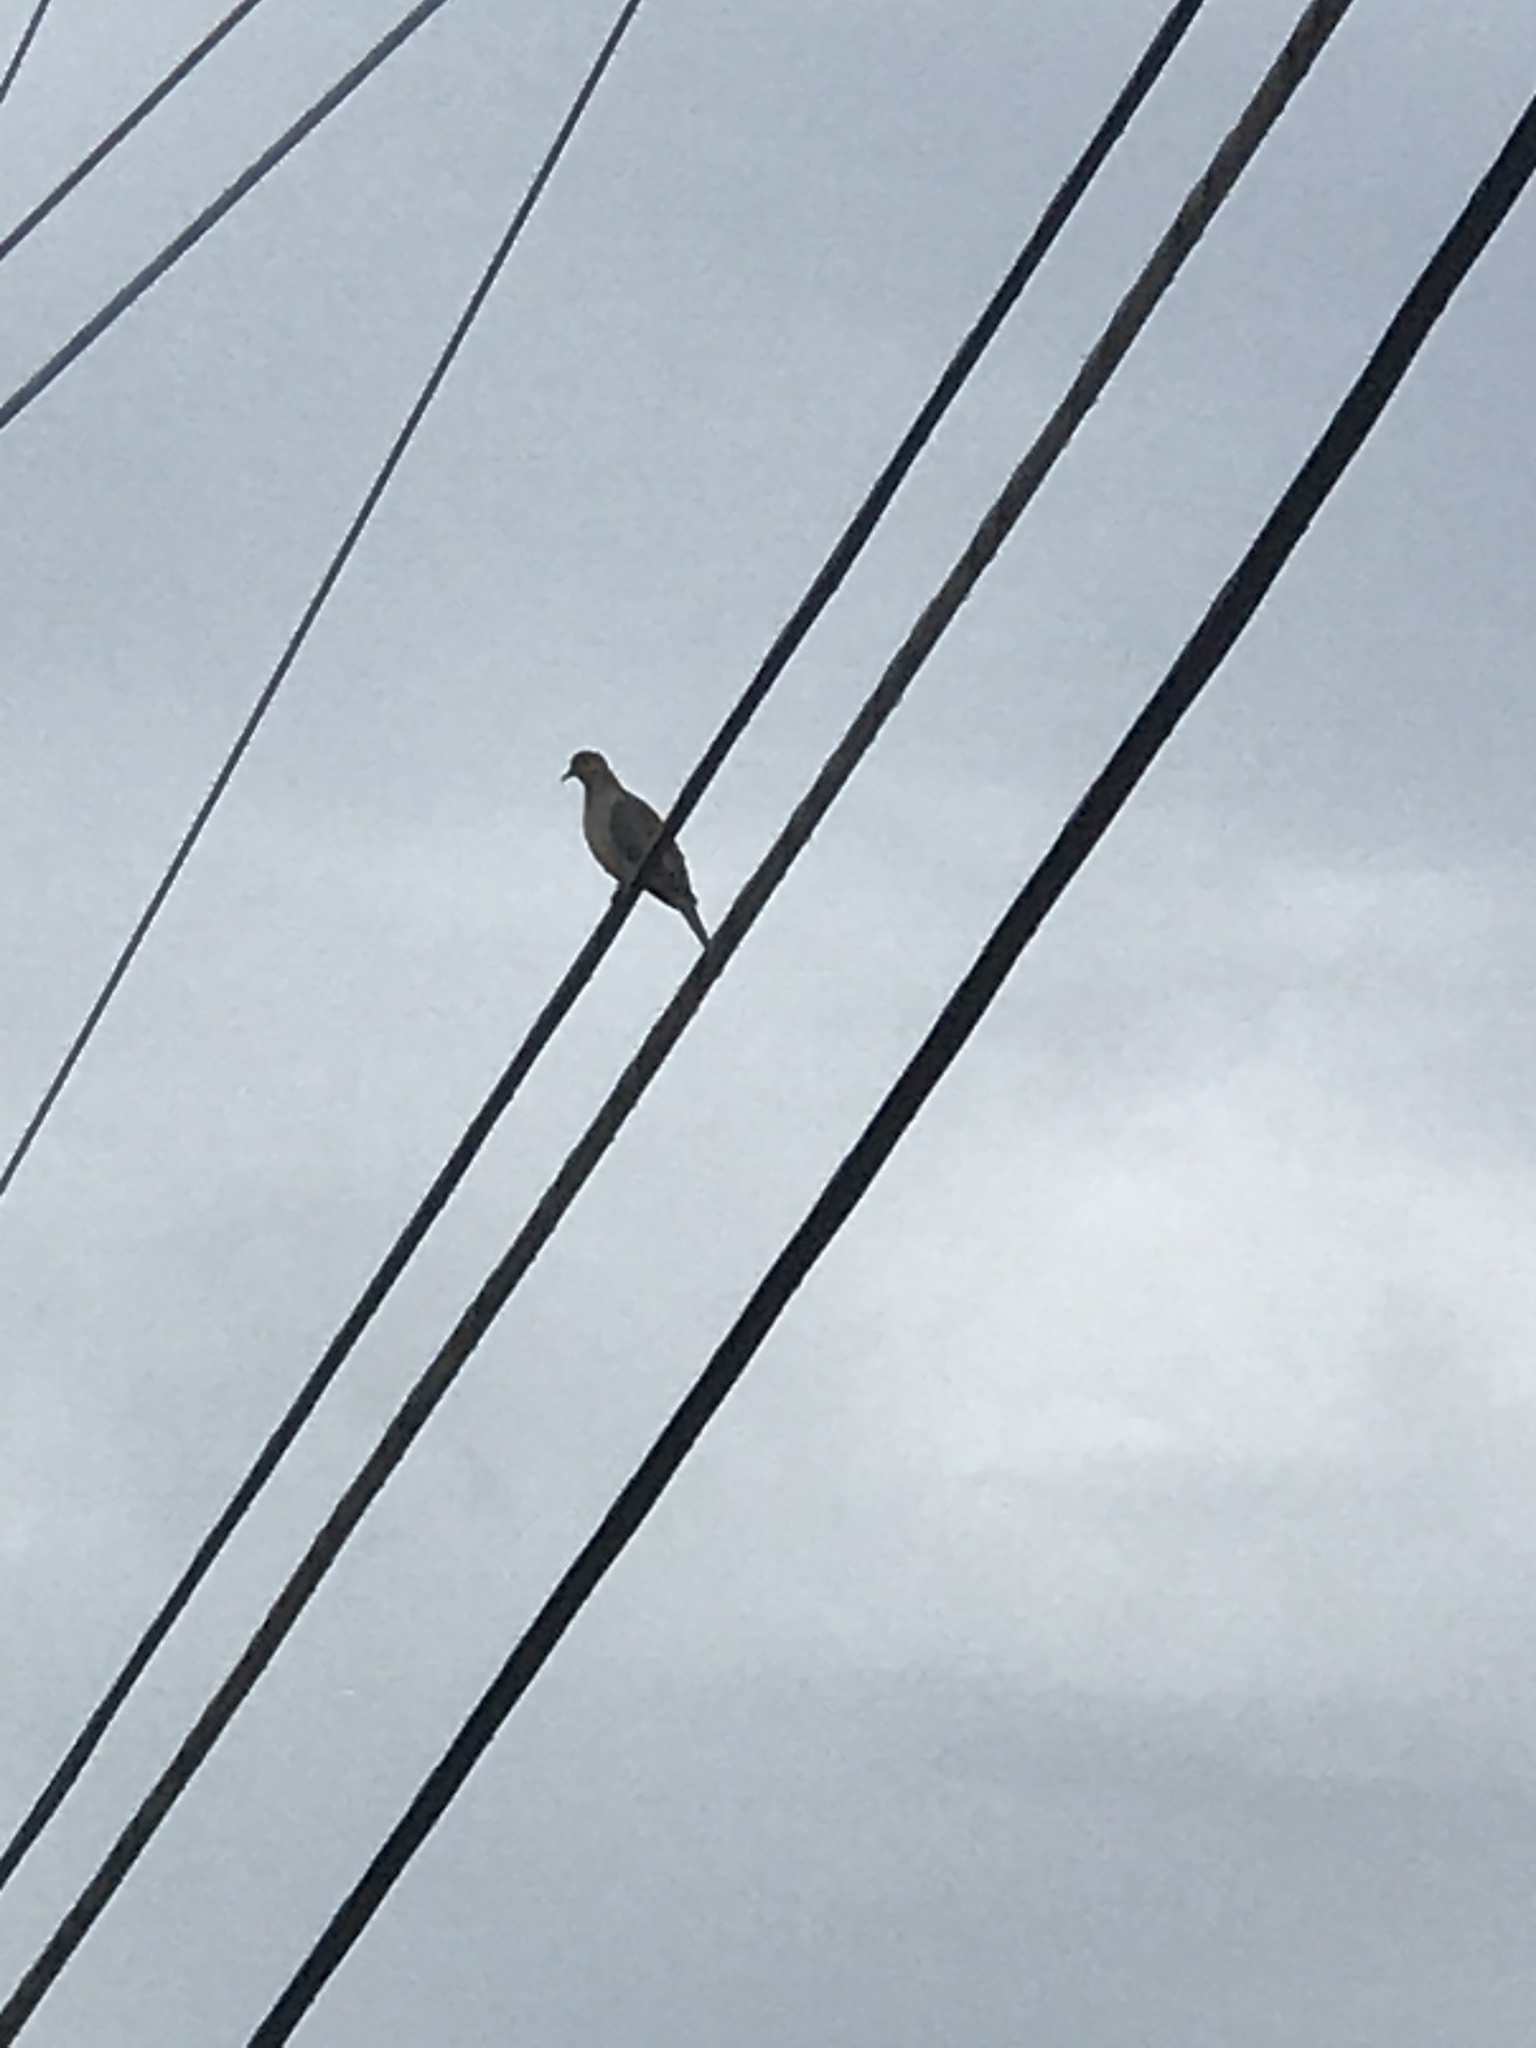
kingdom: Animalia
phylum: Chordata
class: Aves
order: Columbiformes
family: Columbidae
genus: Zenaida
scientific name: Zenaida macroura
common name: Mourning dove
